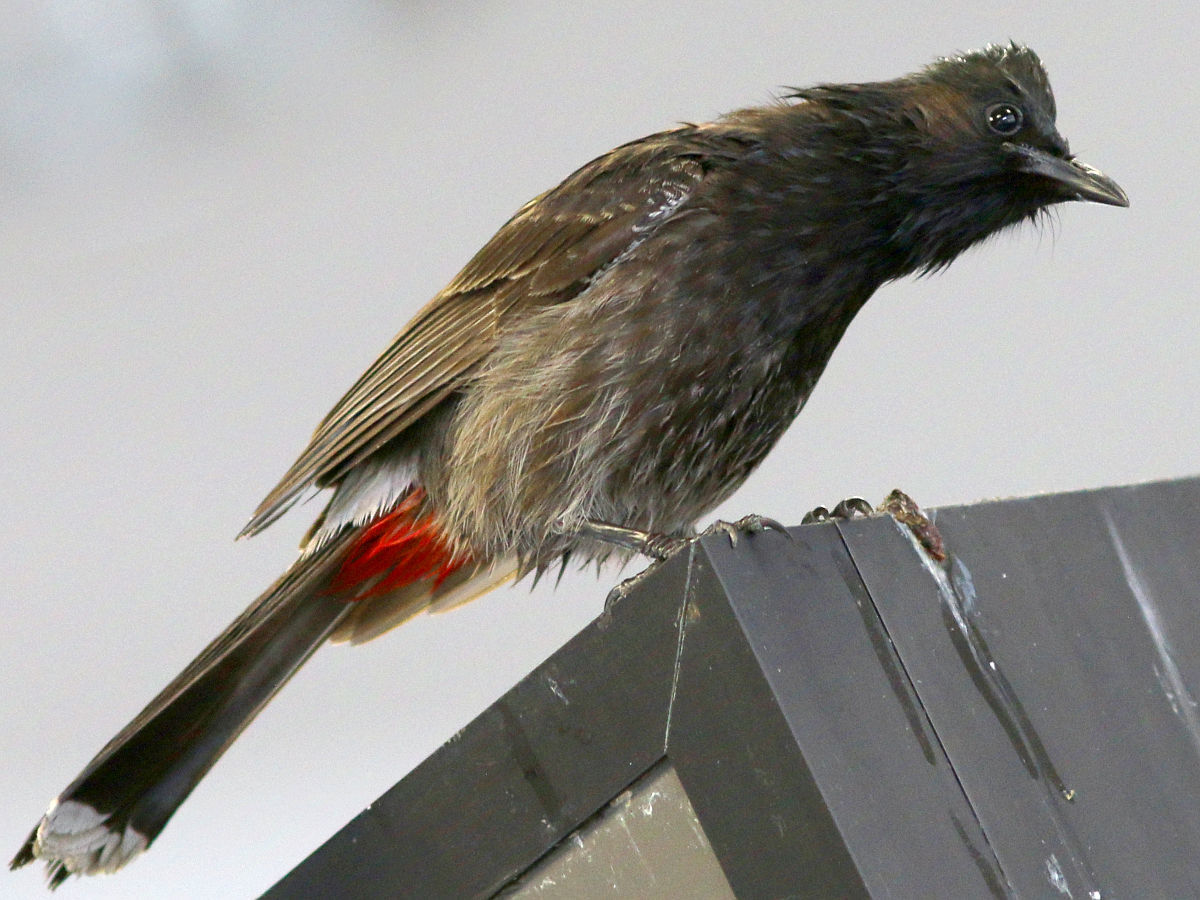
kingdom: Animalia
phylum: Chordata
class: Aves
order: Passeriformes
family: Pycnonotidae
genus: Pycnonotus
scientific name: Pycnonotus cafer
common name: Red-vented bulbul
